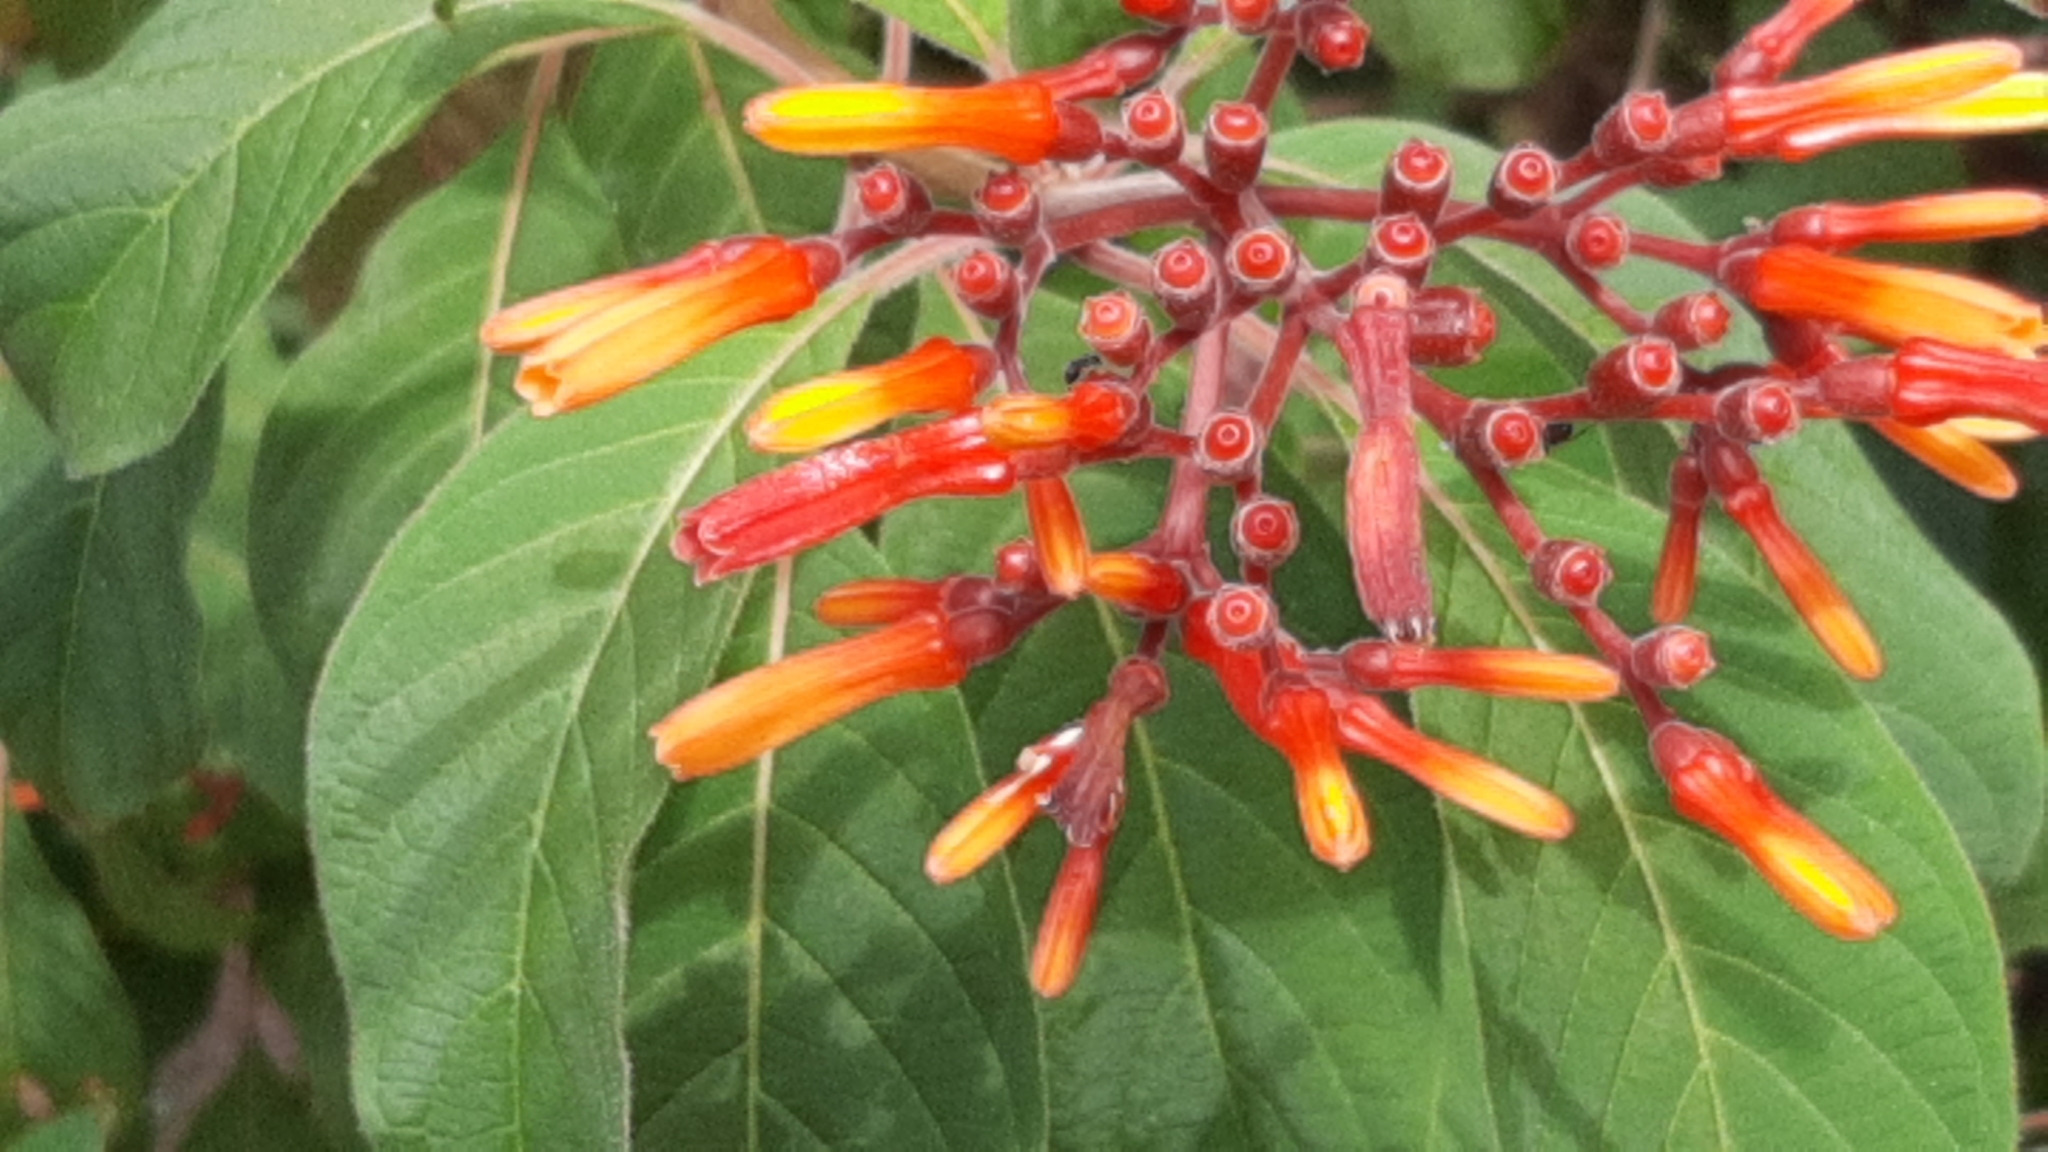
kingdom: Plantae
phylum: Tracheophyta
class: Magnoliopsida
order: Gentianales
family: Rubiaceae
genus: Hamelia
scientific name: Hamelia patens
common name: Redhead
